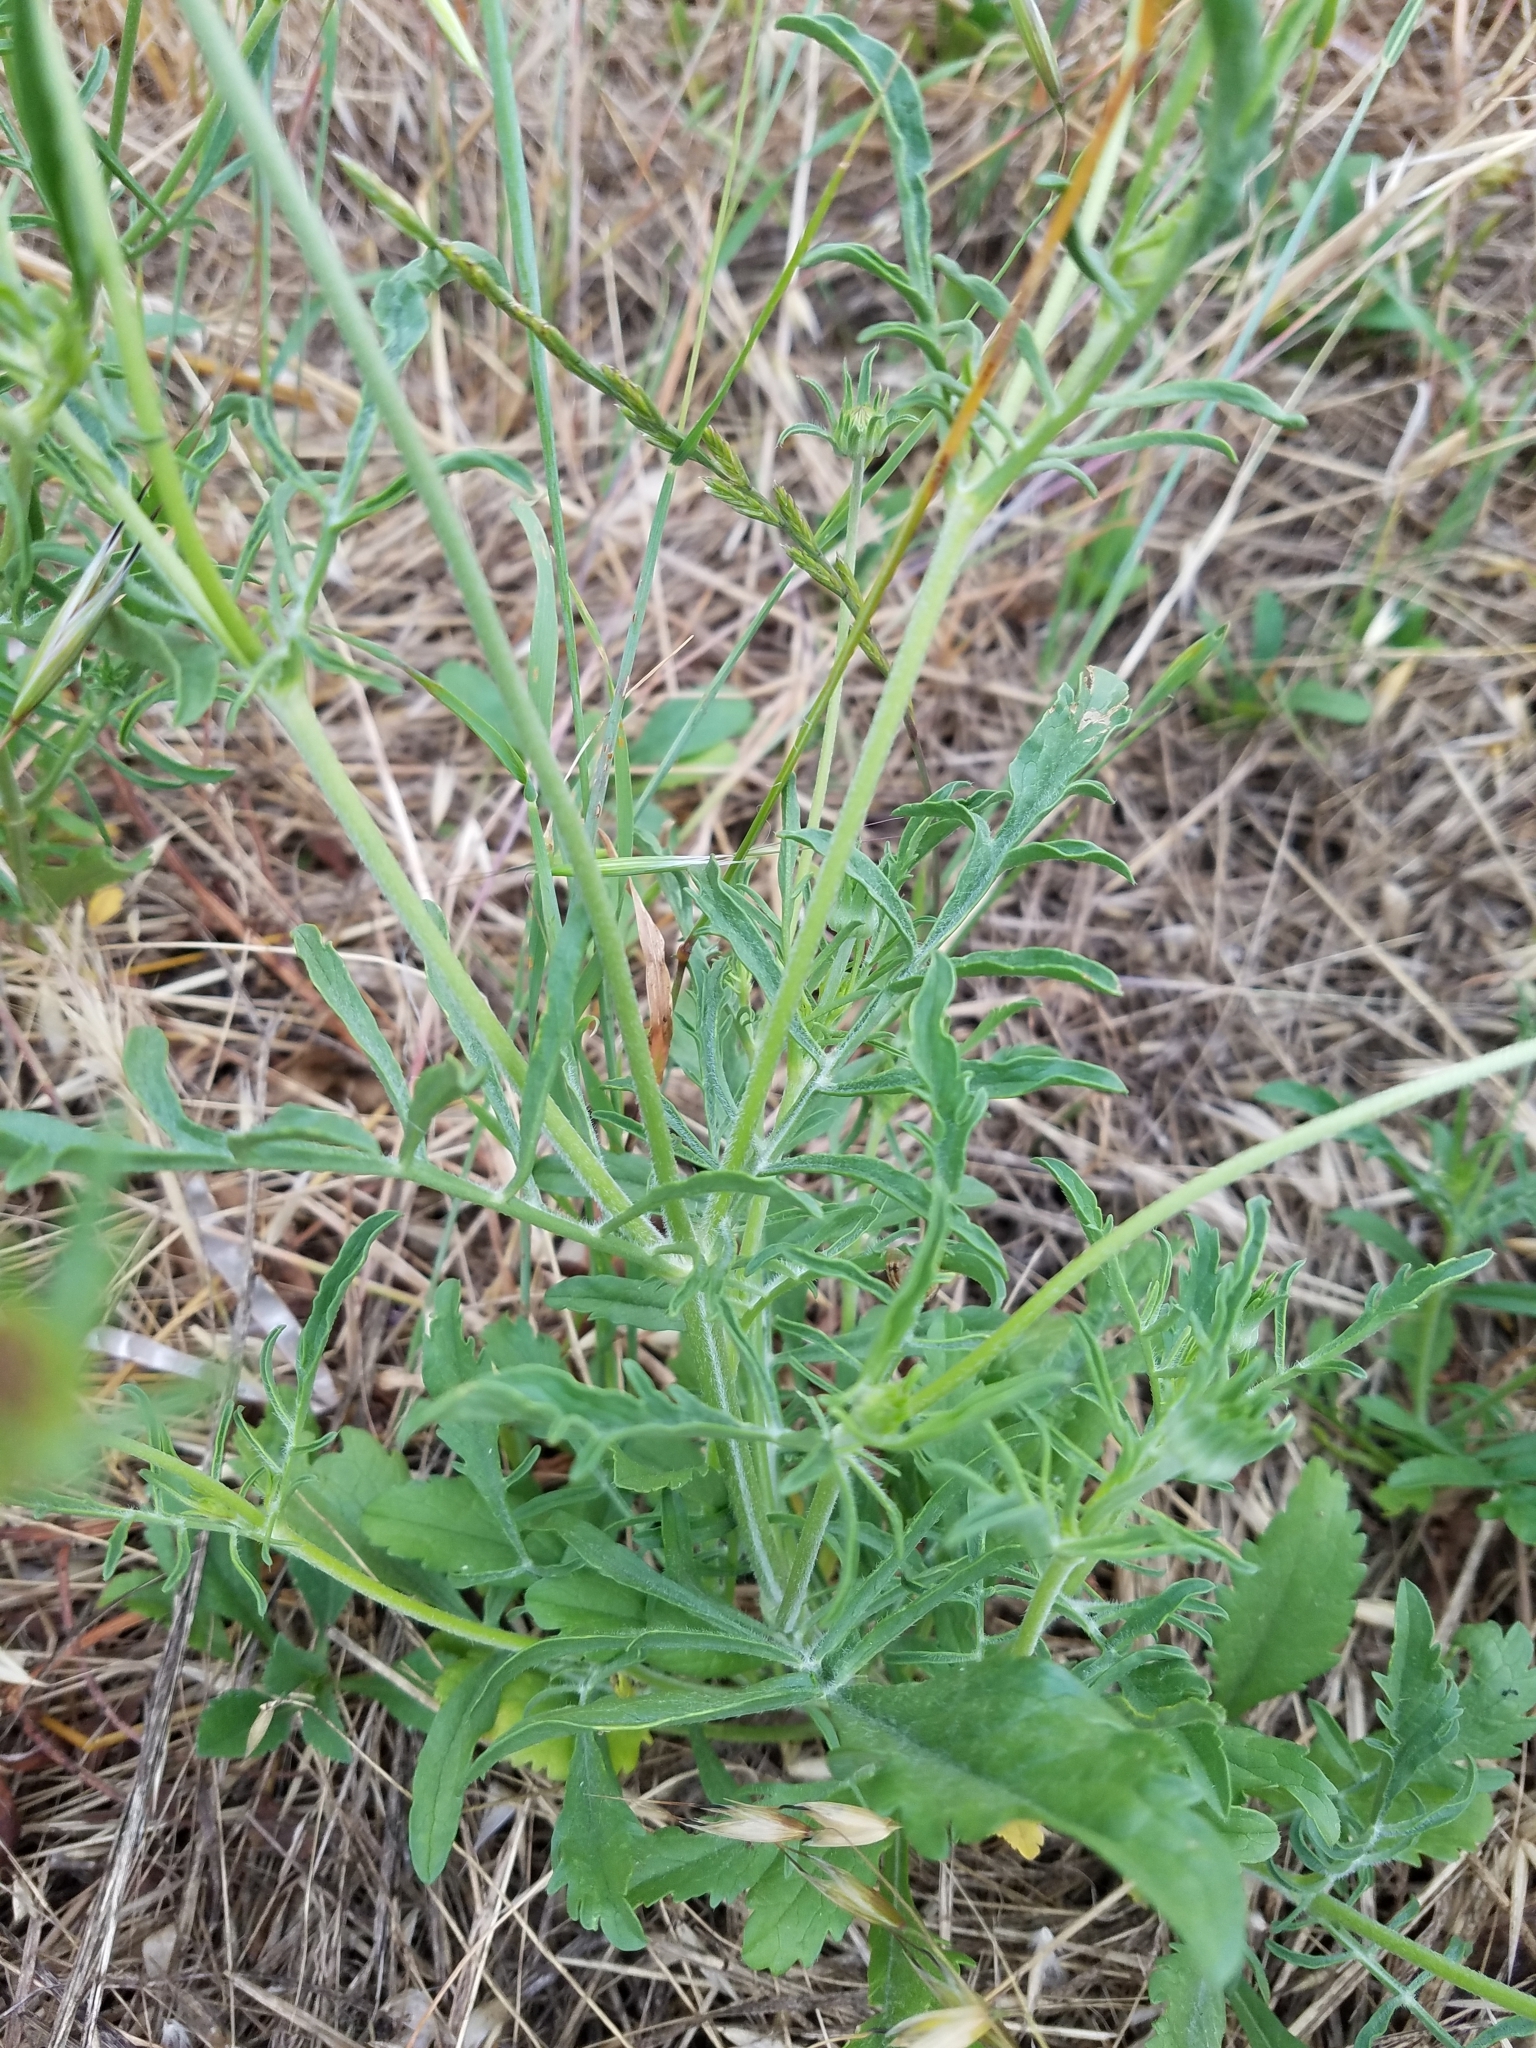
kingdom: Plantae
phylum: Tracheophyta
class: Magnoliopsida
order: Dipsacales
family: Caprifoliaceae
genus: Sixalix
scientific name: Sixalix atropurpurea
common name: Sweet scabious
